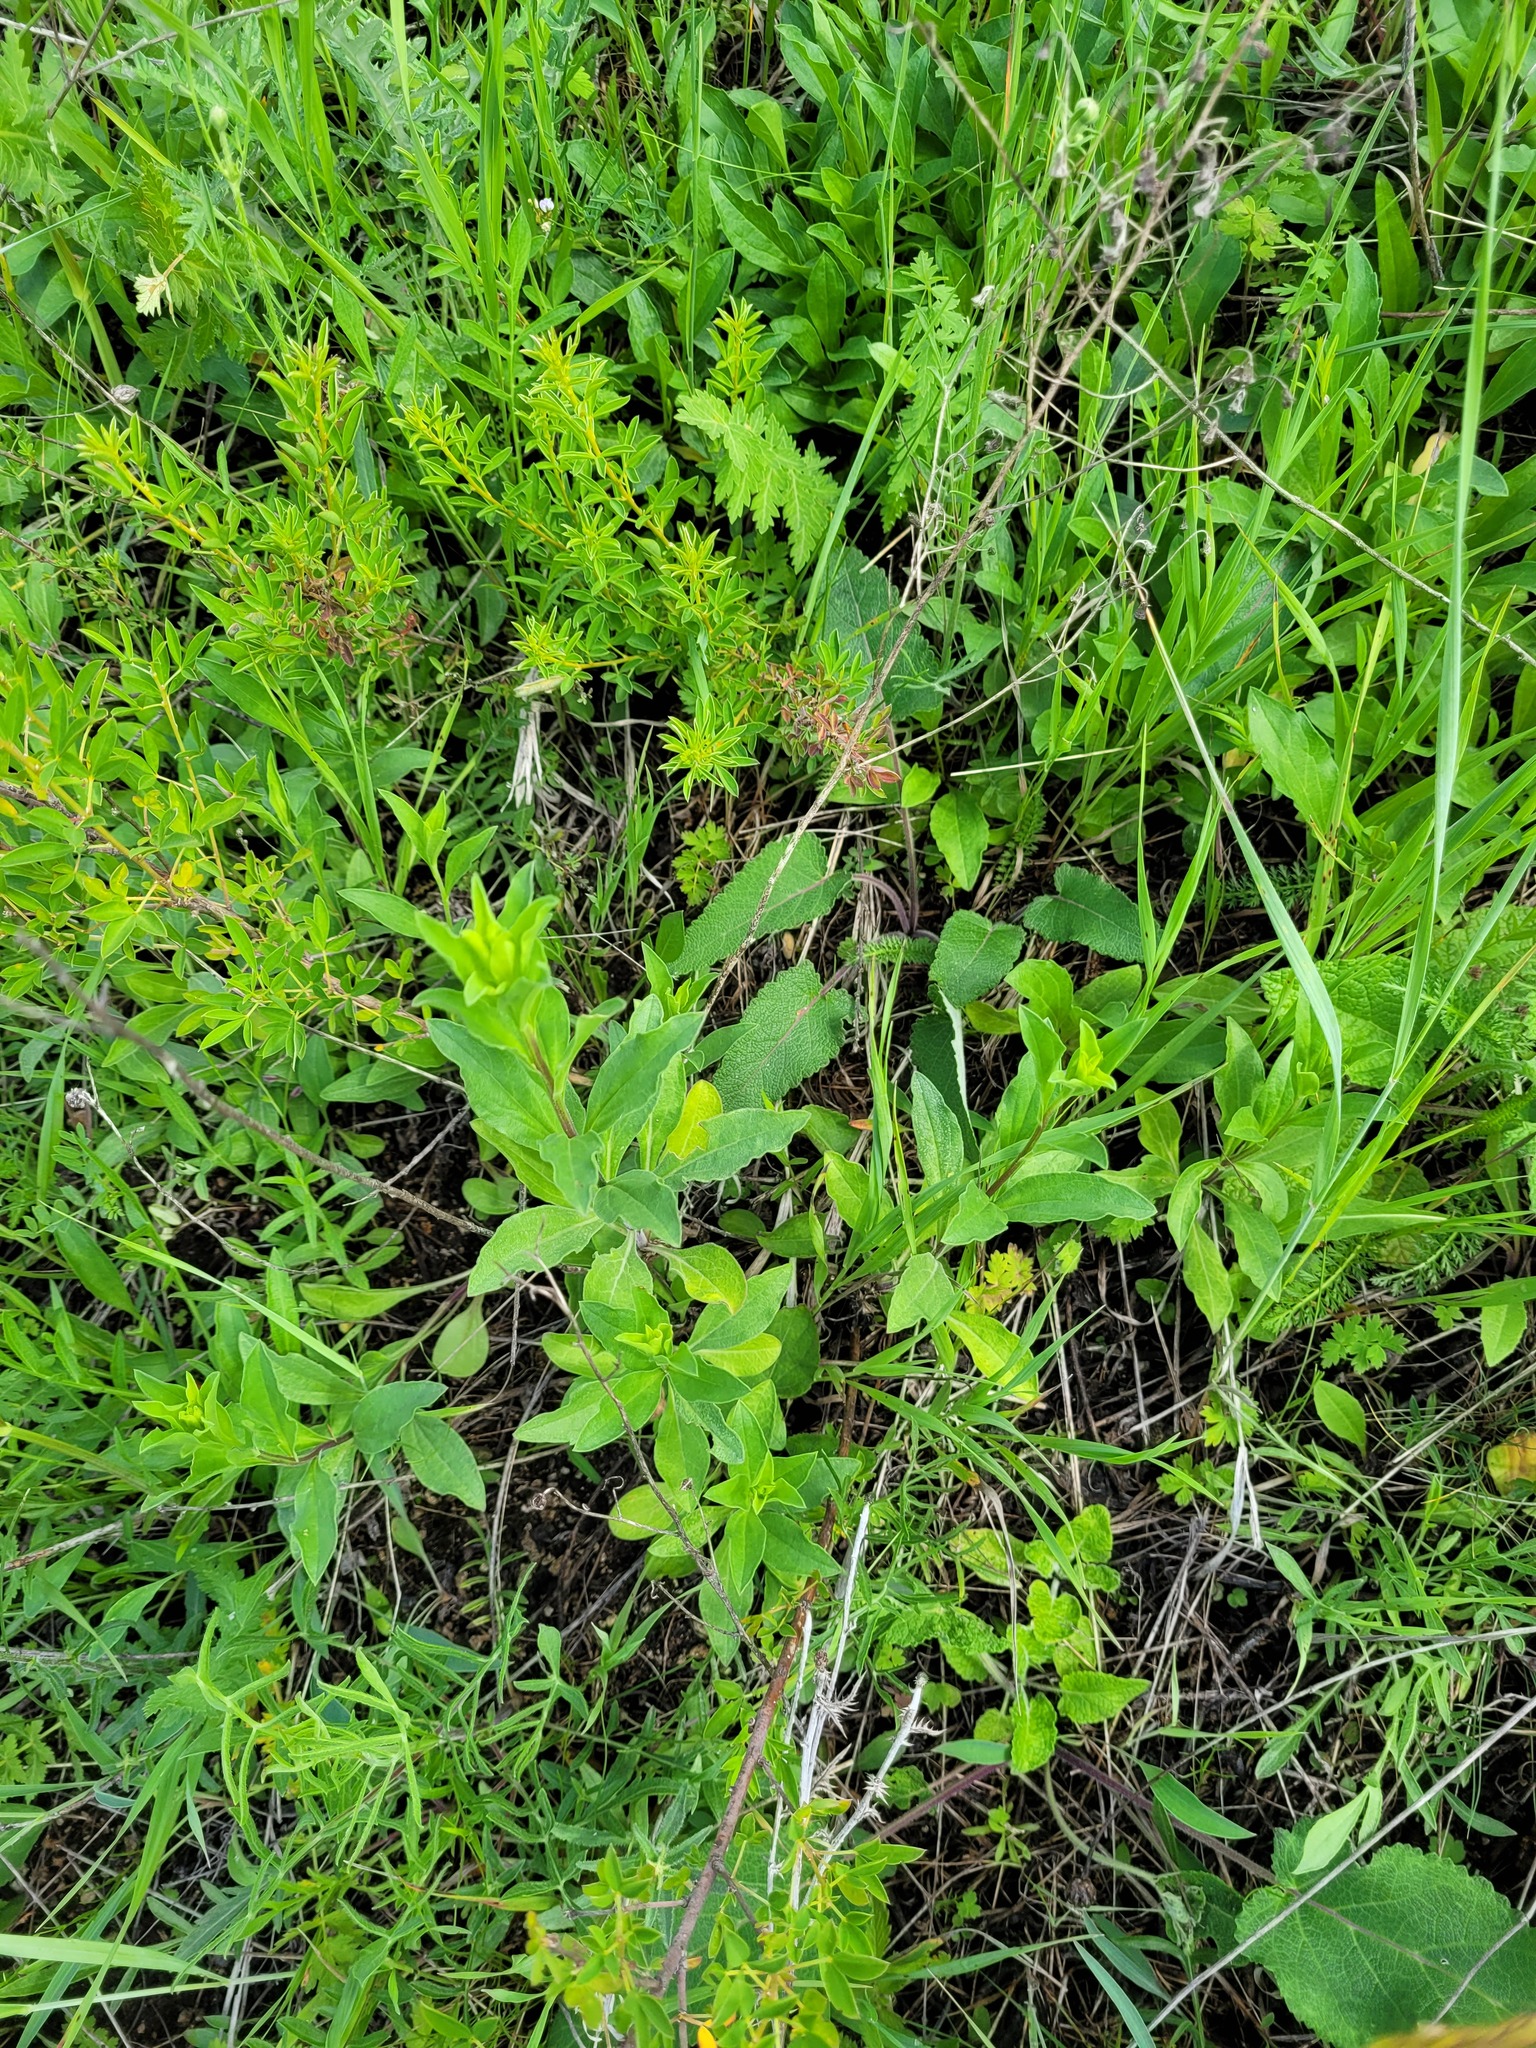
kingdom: Plantae
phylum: Tracheophyta
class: Magnoliopsida
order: Asterales
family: Asteraceae
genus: Aster
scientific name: Aster amellus
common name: European michaelmas daisy
